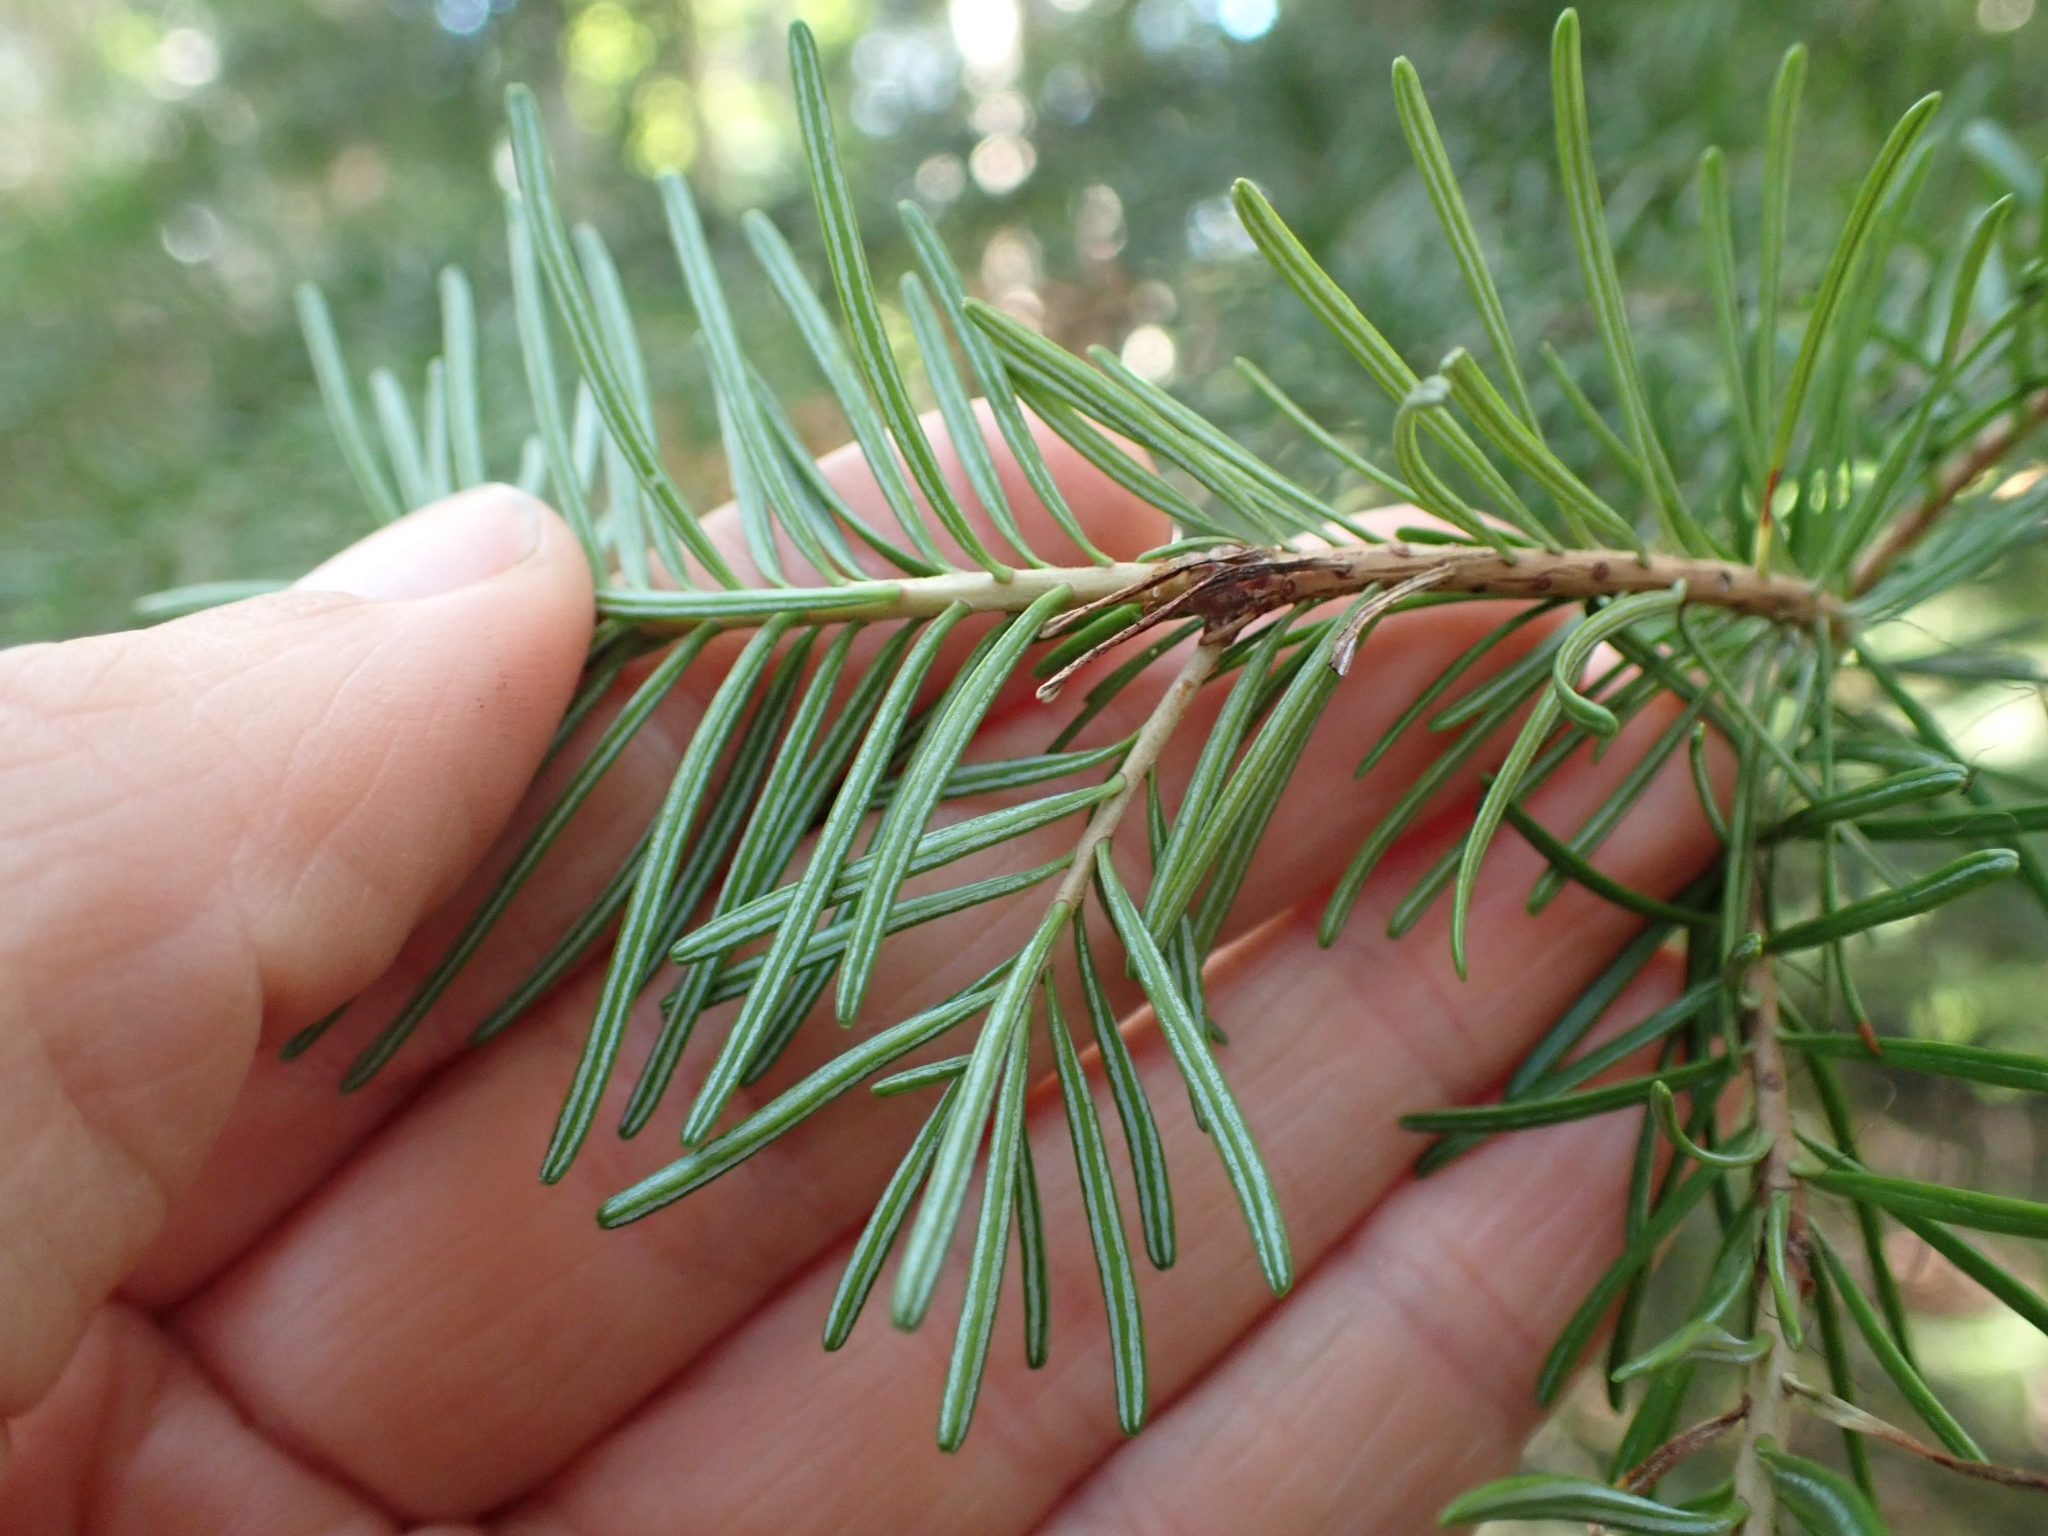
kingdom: Plantae
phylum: Tracheophyta
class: Pinopsida
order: Pinales
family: Pinaceae
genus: Abies
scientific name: Abies lasiocarpa
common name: Subalpine fir
